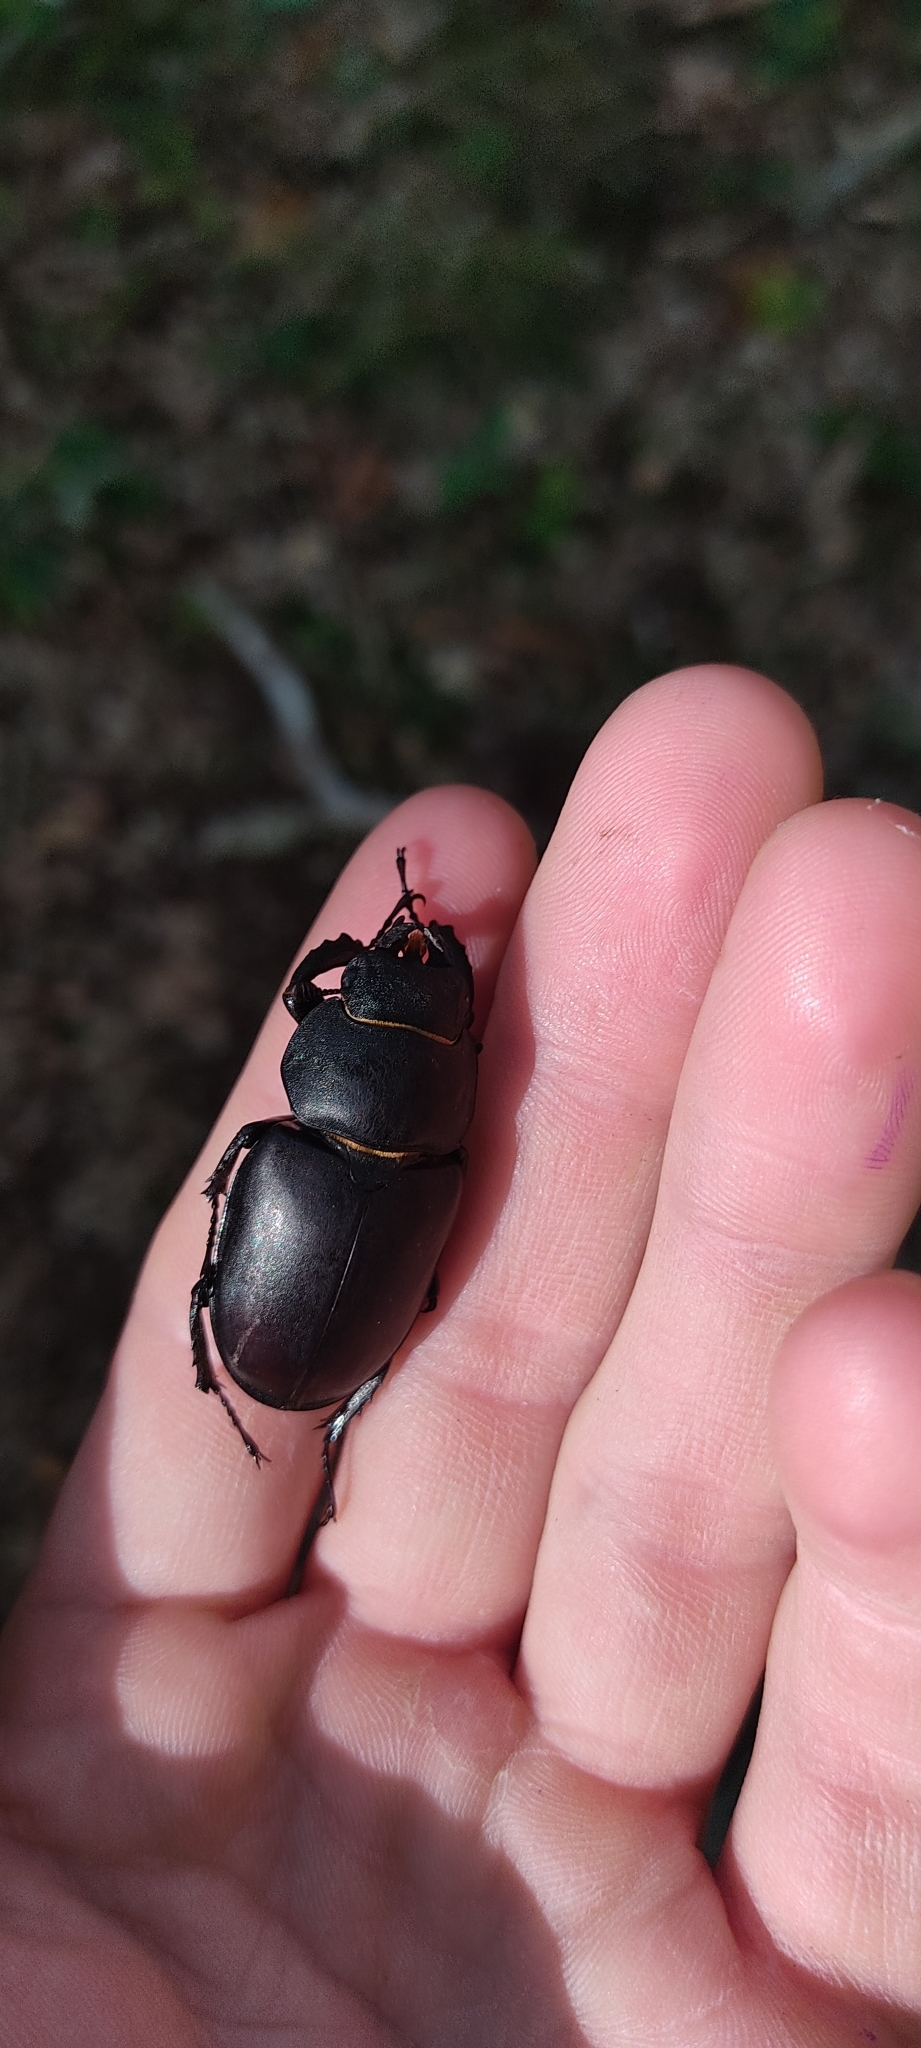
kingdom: Animalia
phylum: Arthropoda
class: Insecta
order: Coleoptera
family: Lucanidae
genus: Lucanus
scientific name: Lucanus cervus
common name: Stag beetle
